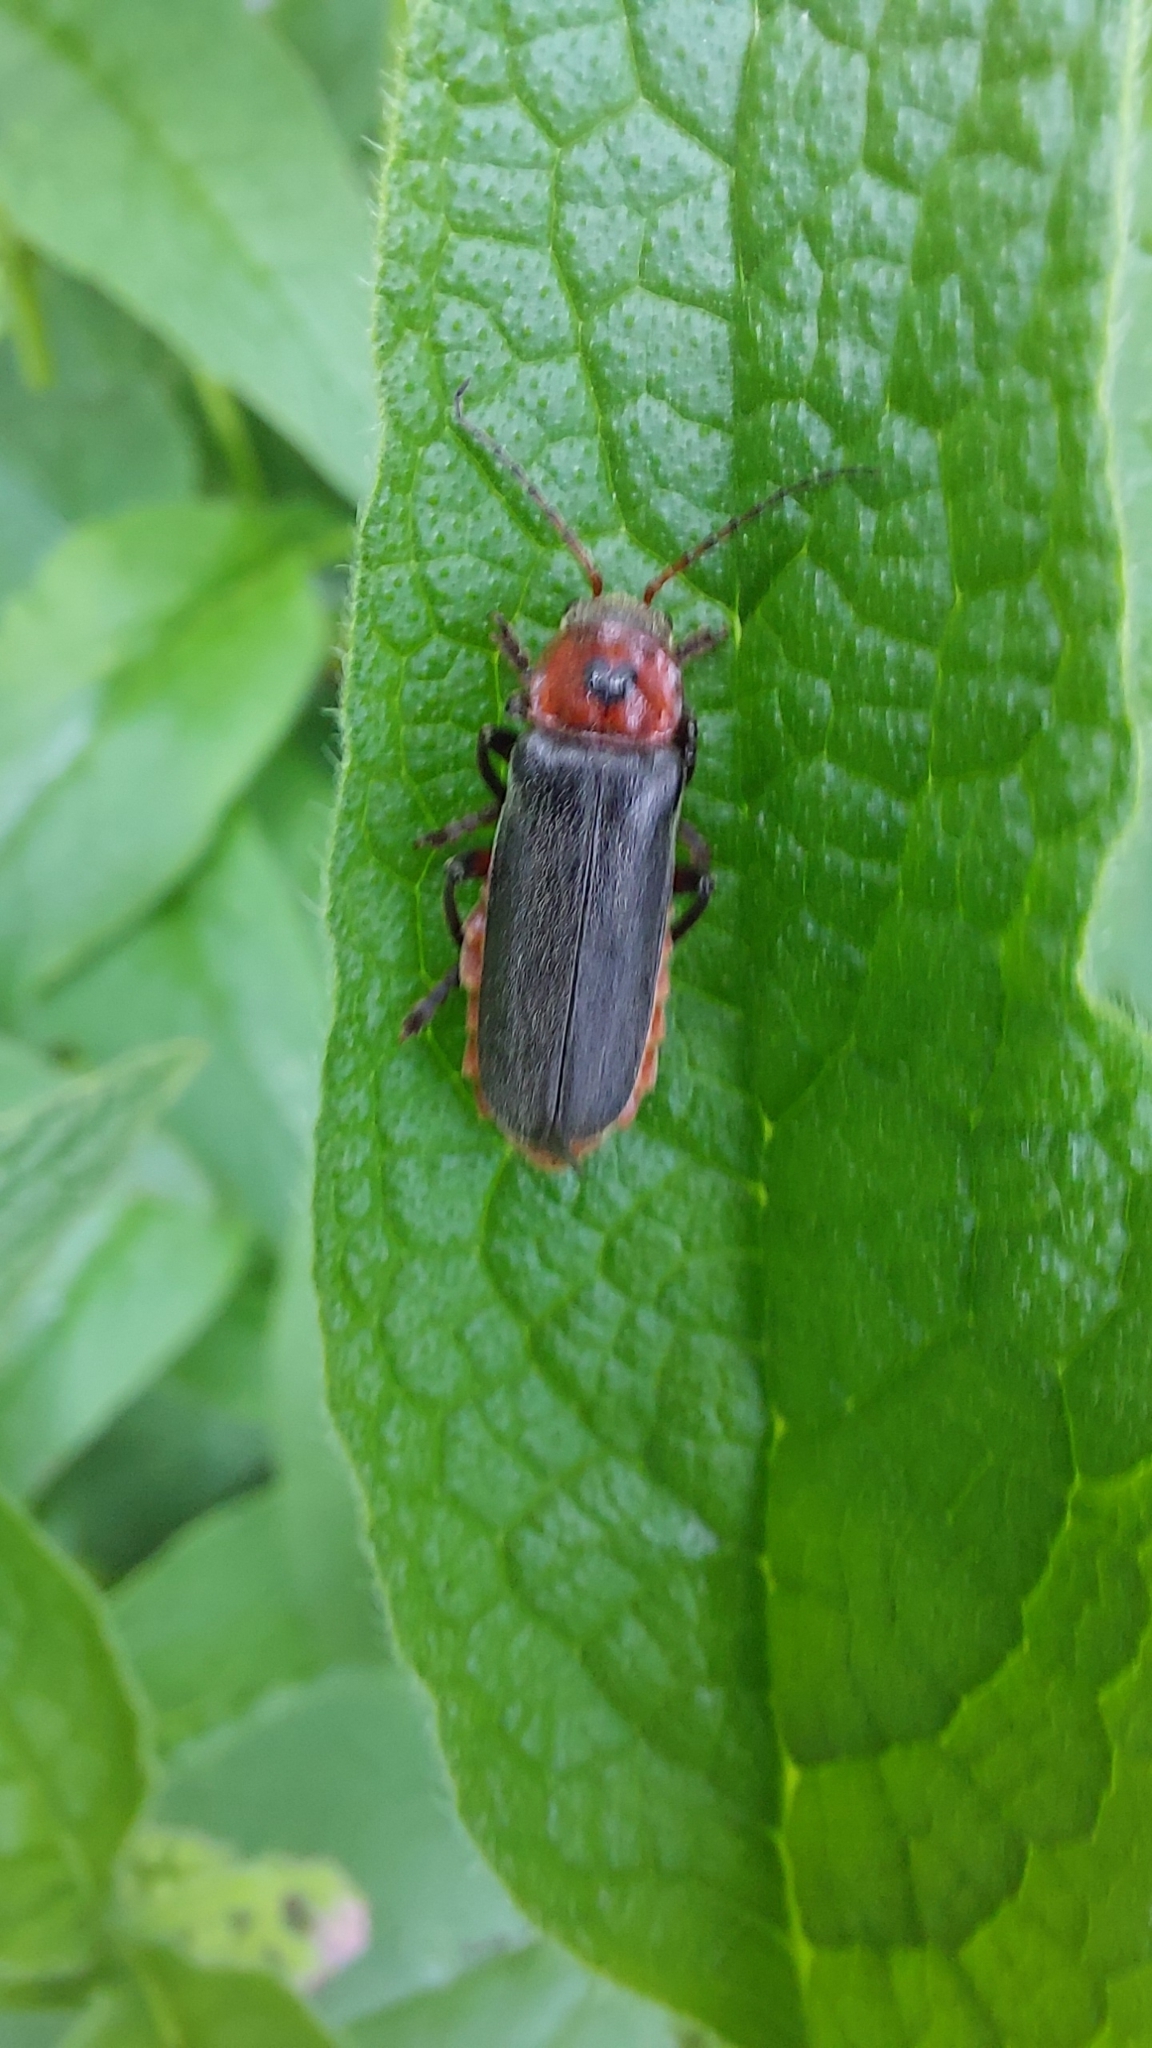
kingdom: Animalia
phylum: Arthropoda
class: Insecta
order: Coleoptera
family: Cantharidae
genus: Cantharis
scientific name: Cantharis rustica
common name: Soldier beetle
